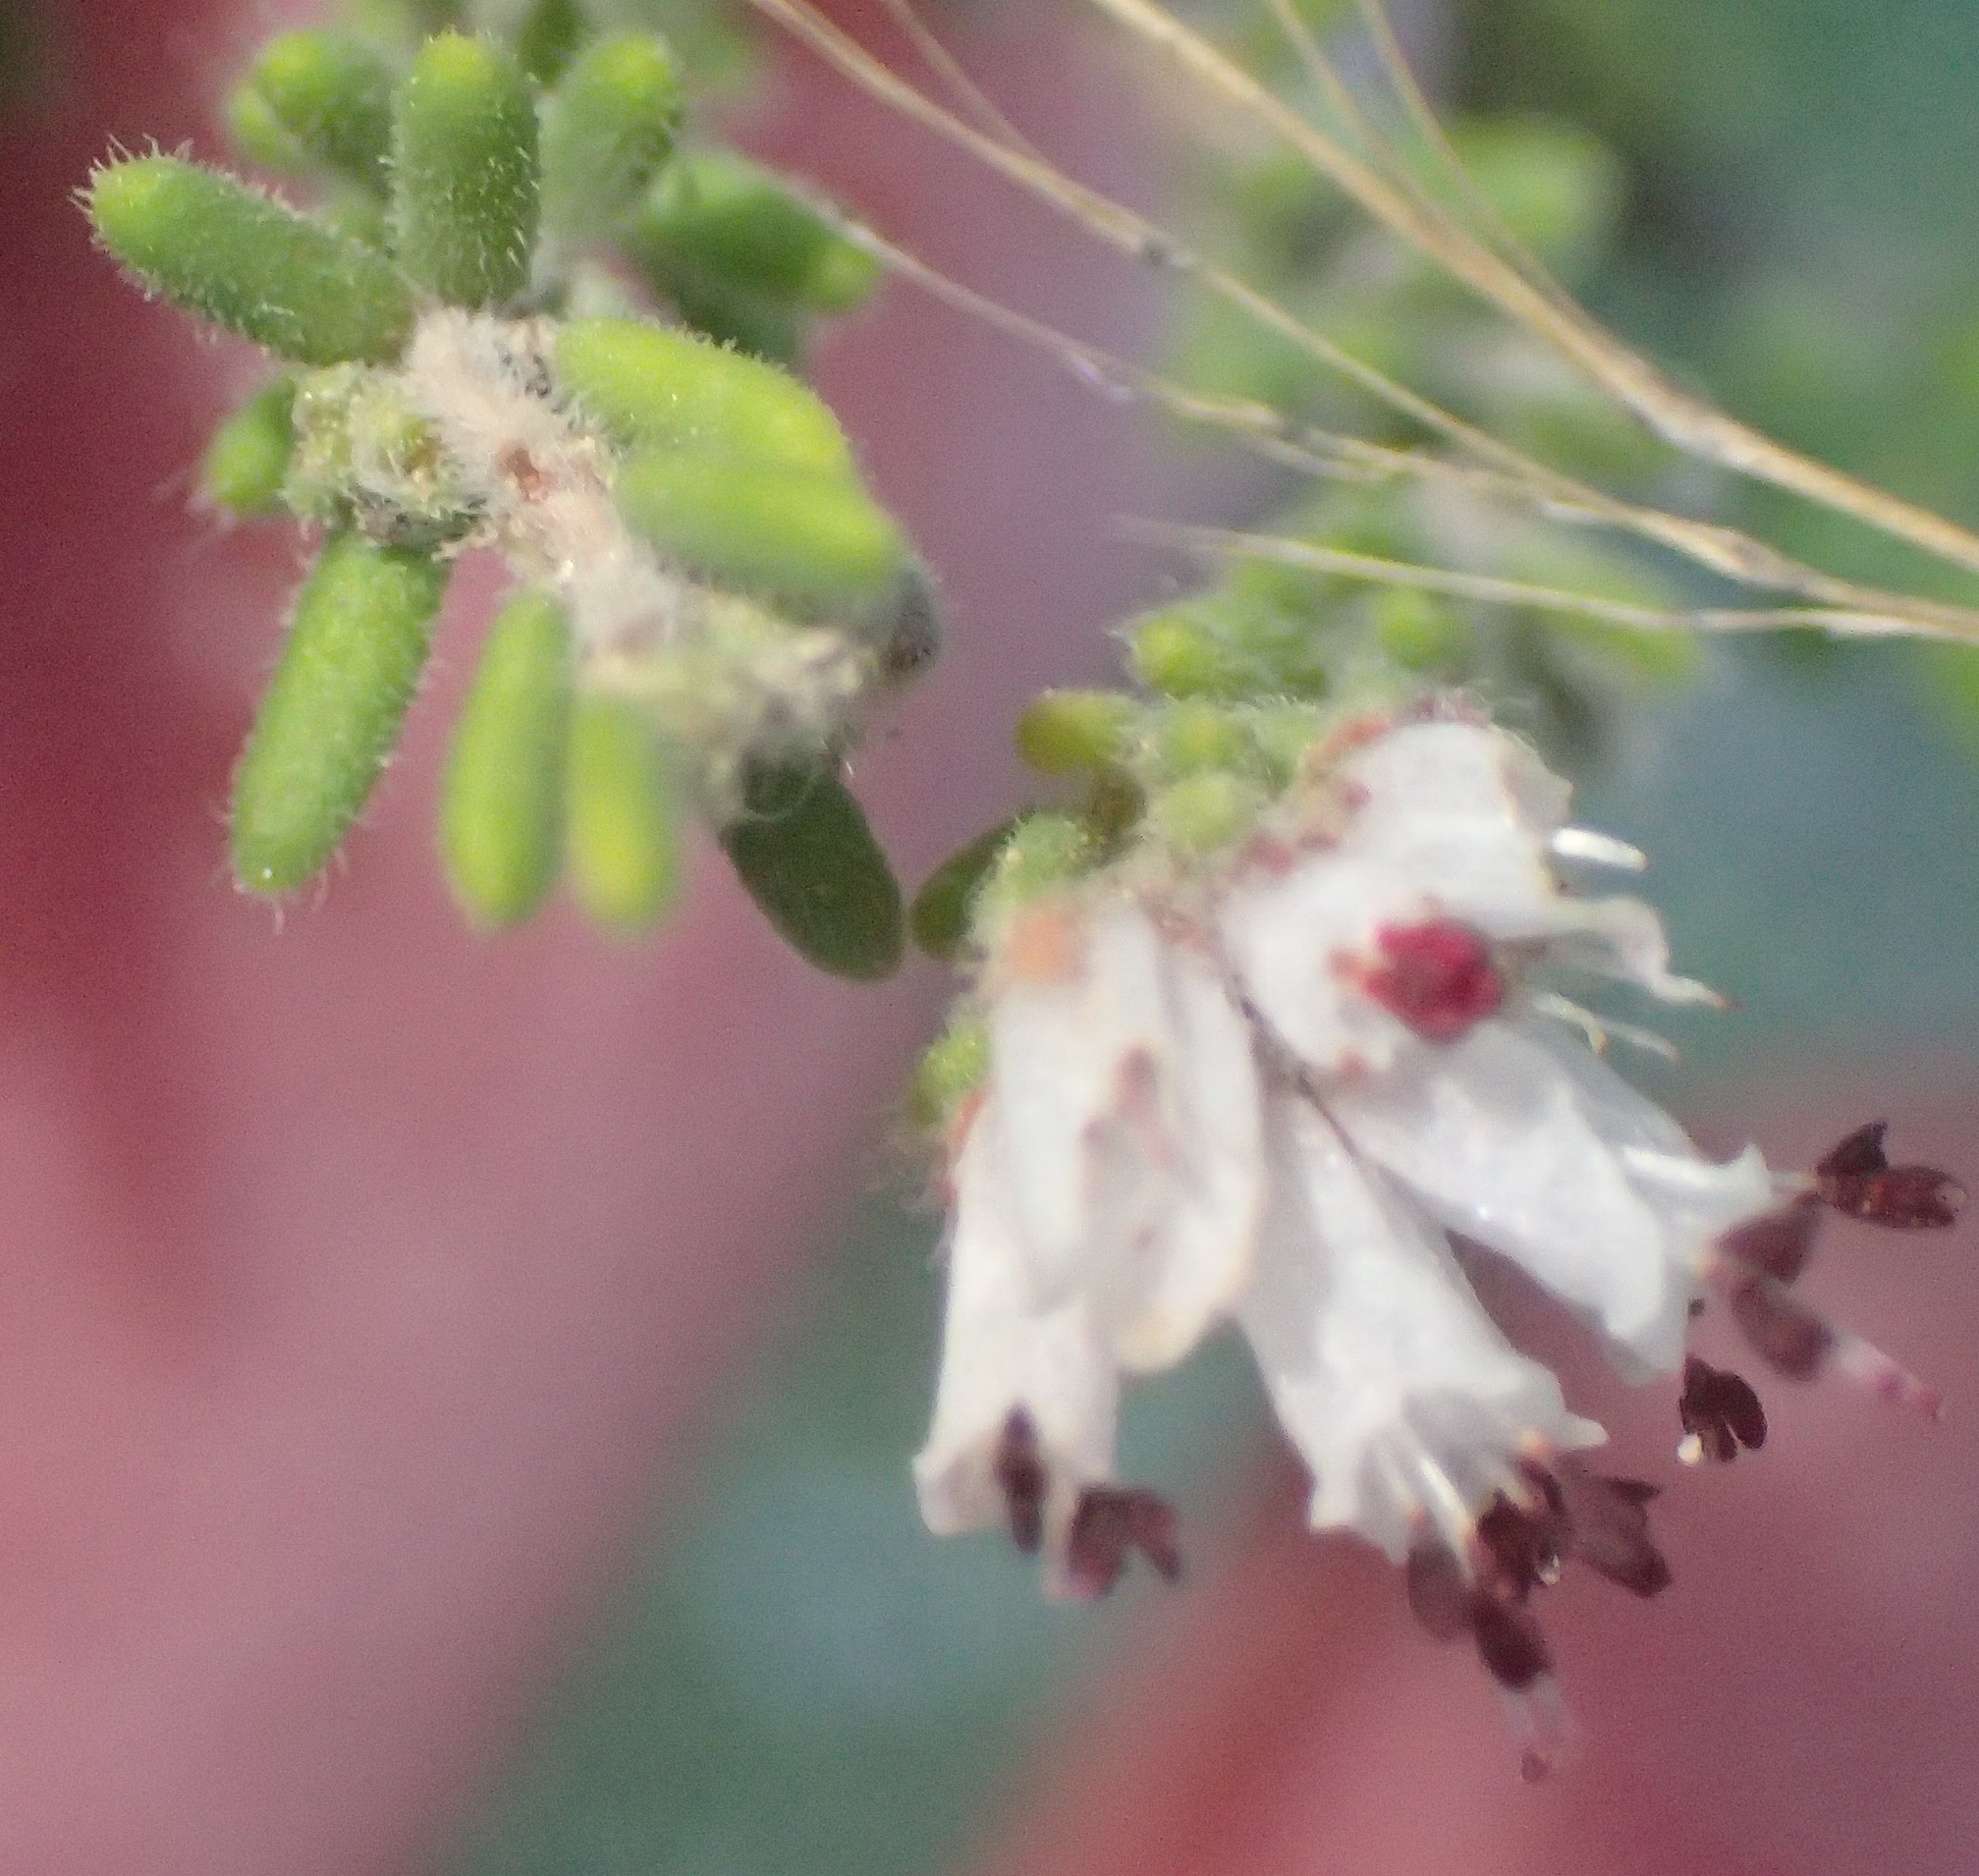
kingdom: Plantae
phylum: Tracheophyta
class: Magnoliopsida
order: Ericales
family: Ericaceae
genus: Erica
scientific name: Erica ericoides
